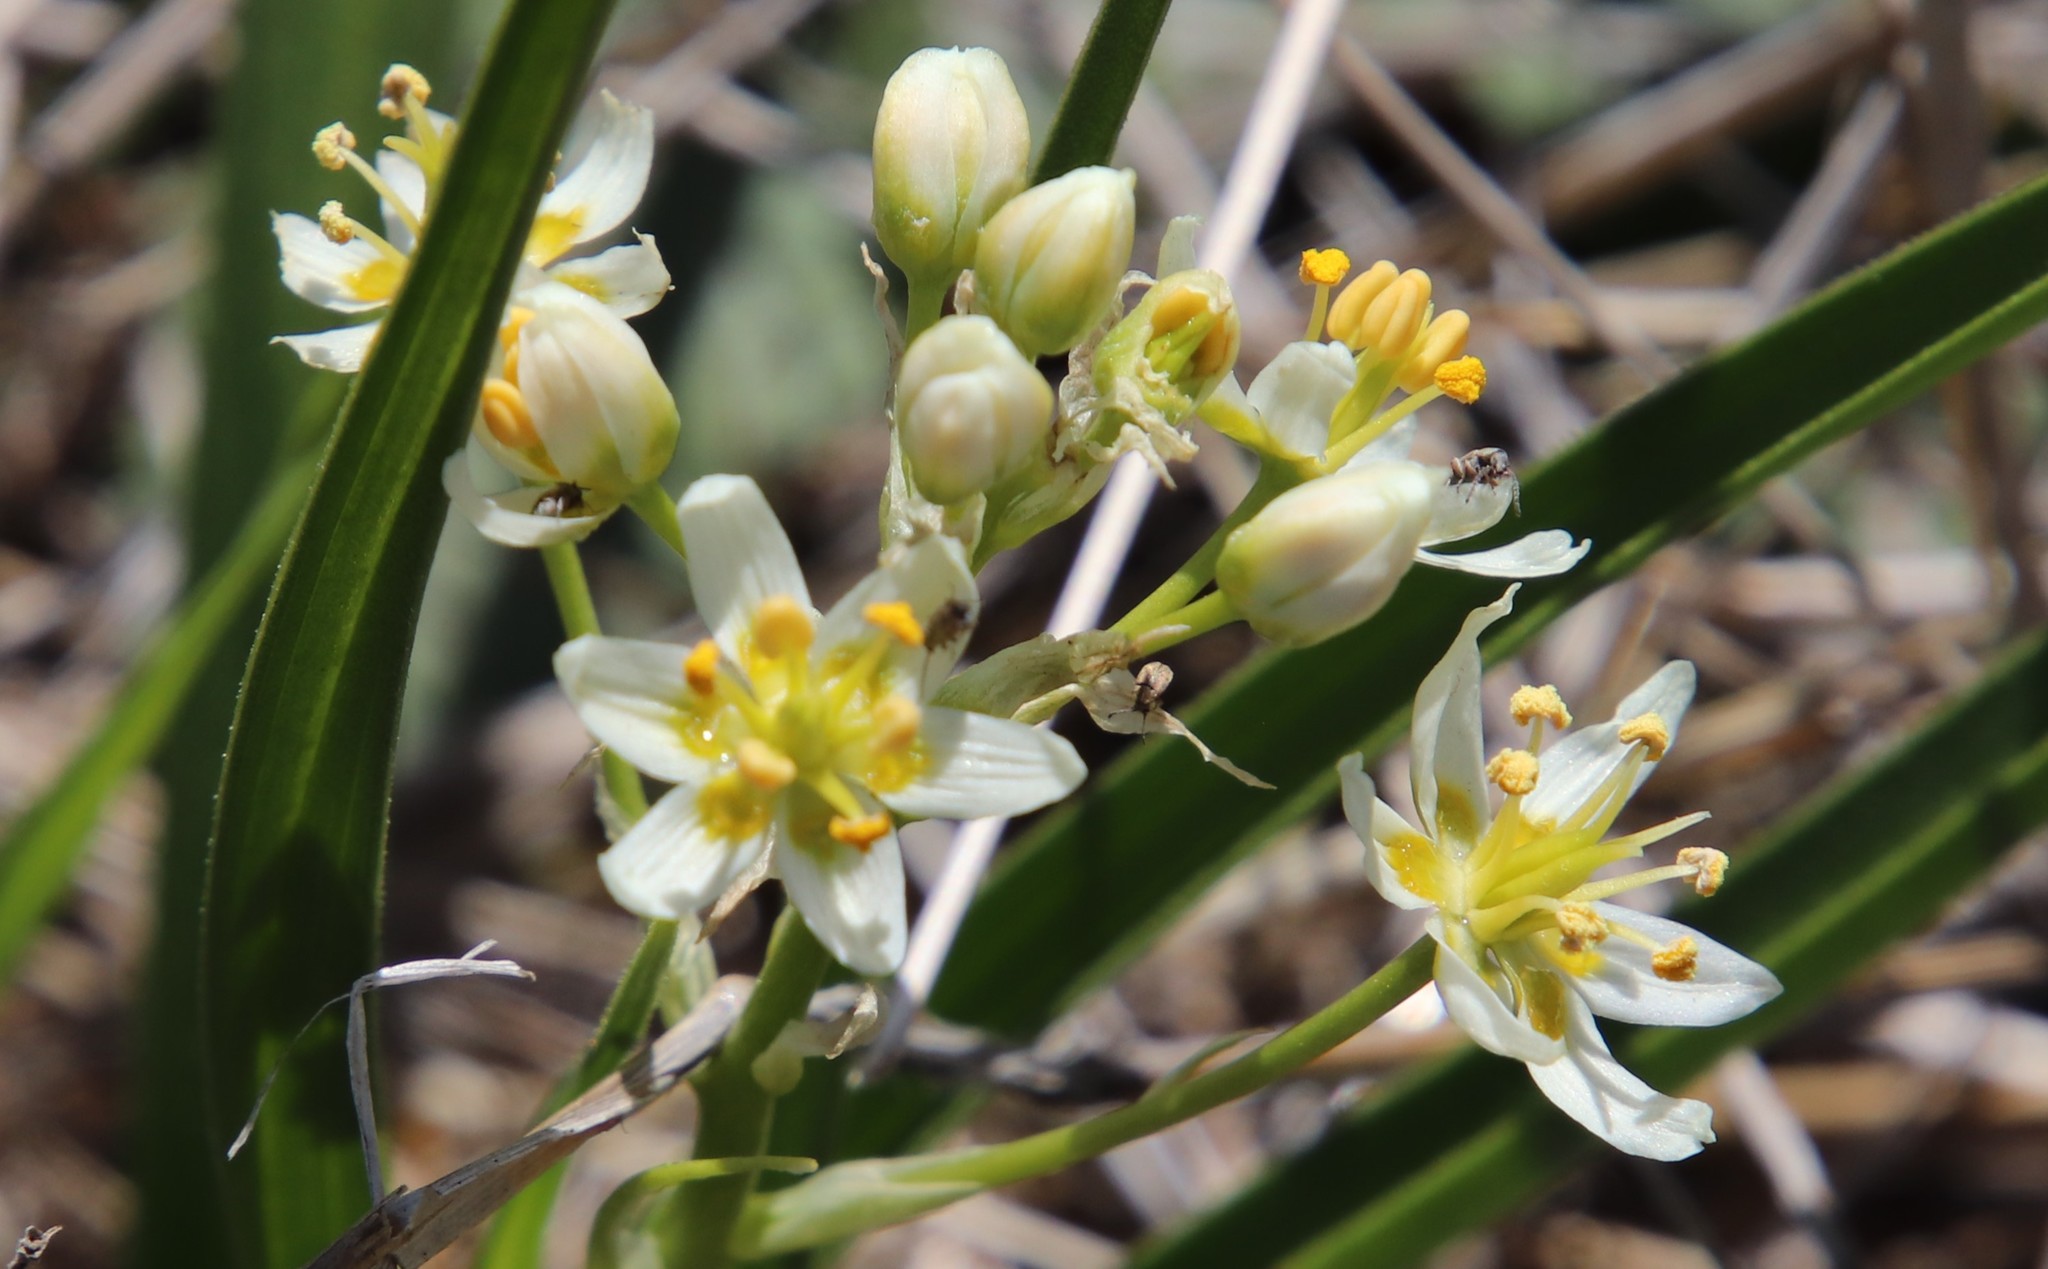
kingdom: Plantae
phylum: Tracheophyta
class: Liliopsida
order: Liliales
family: Melanthiaceae
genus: Toxicoscordion
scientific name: Toxicoscordion fremontii
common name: Fremont's death camas
